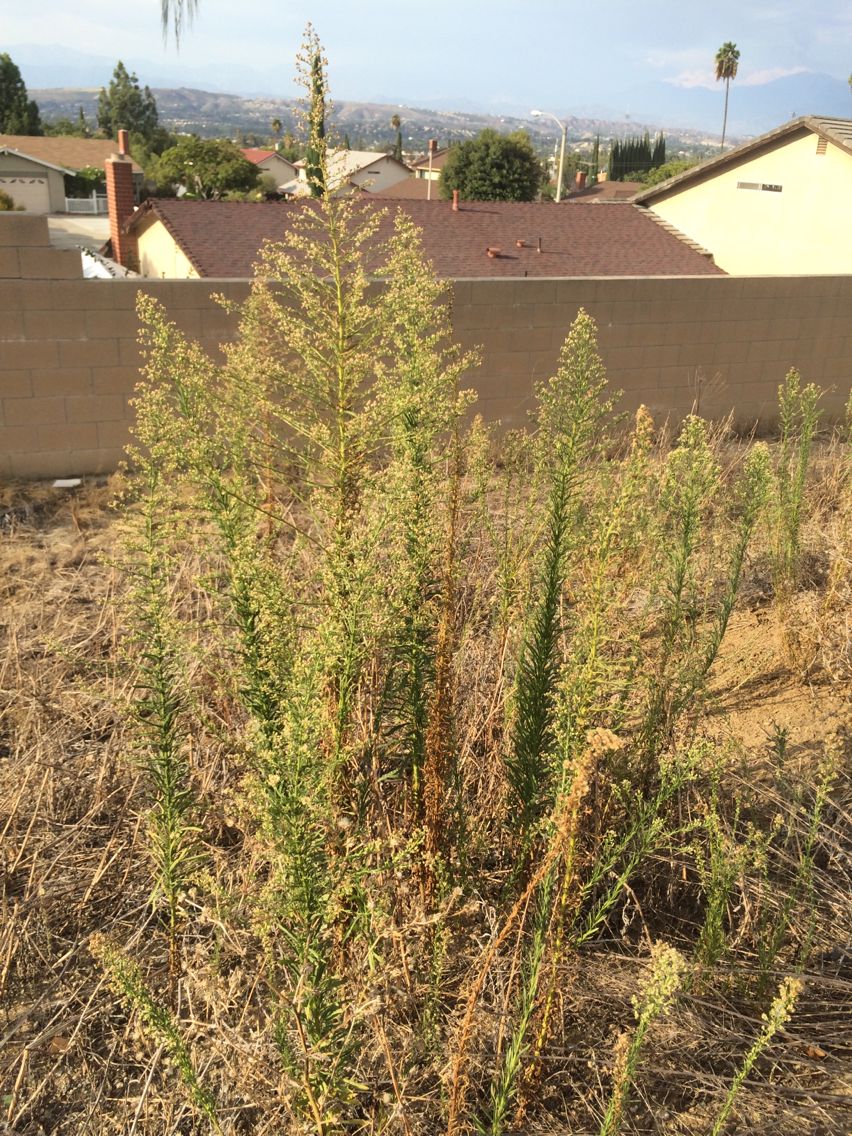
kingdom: Plantae
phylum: Tracheophyta
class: Magnoliopsida
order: Asterales
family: Asteraceae
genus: Erigeron
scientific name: Erigeron canadensis
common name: Canadian fleabane
